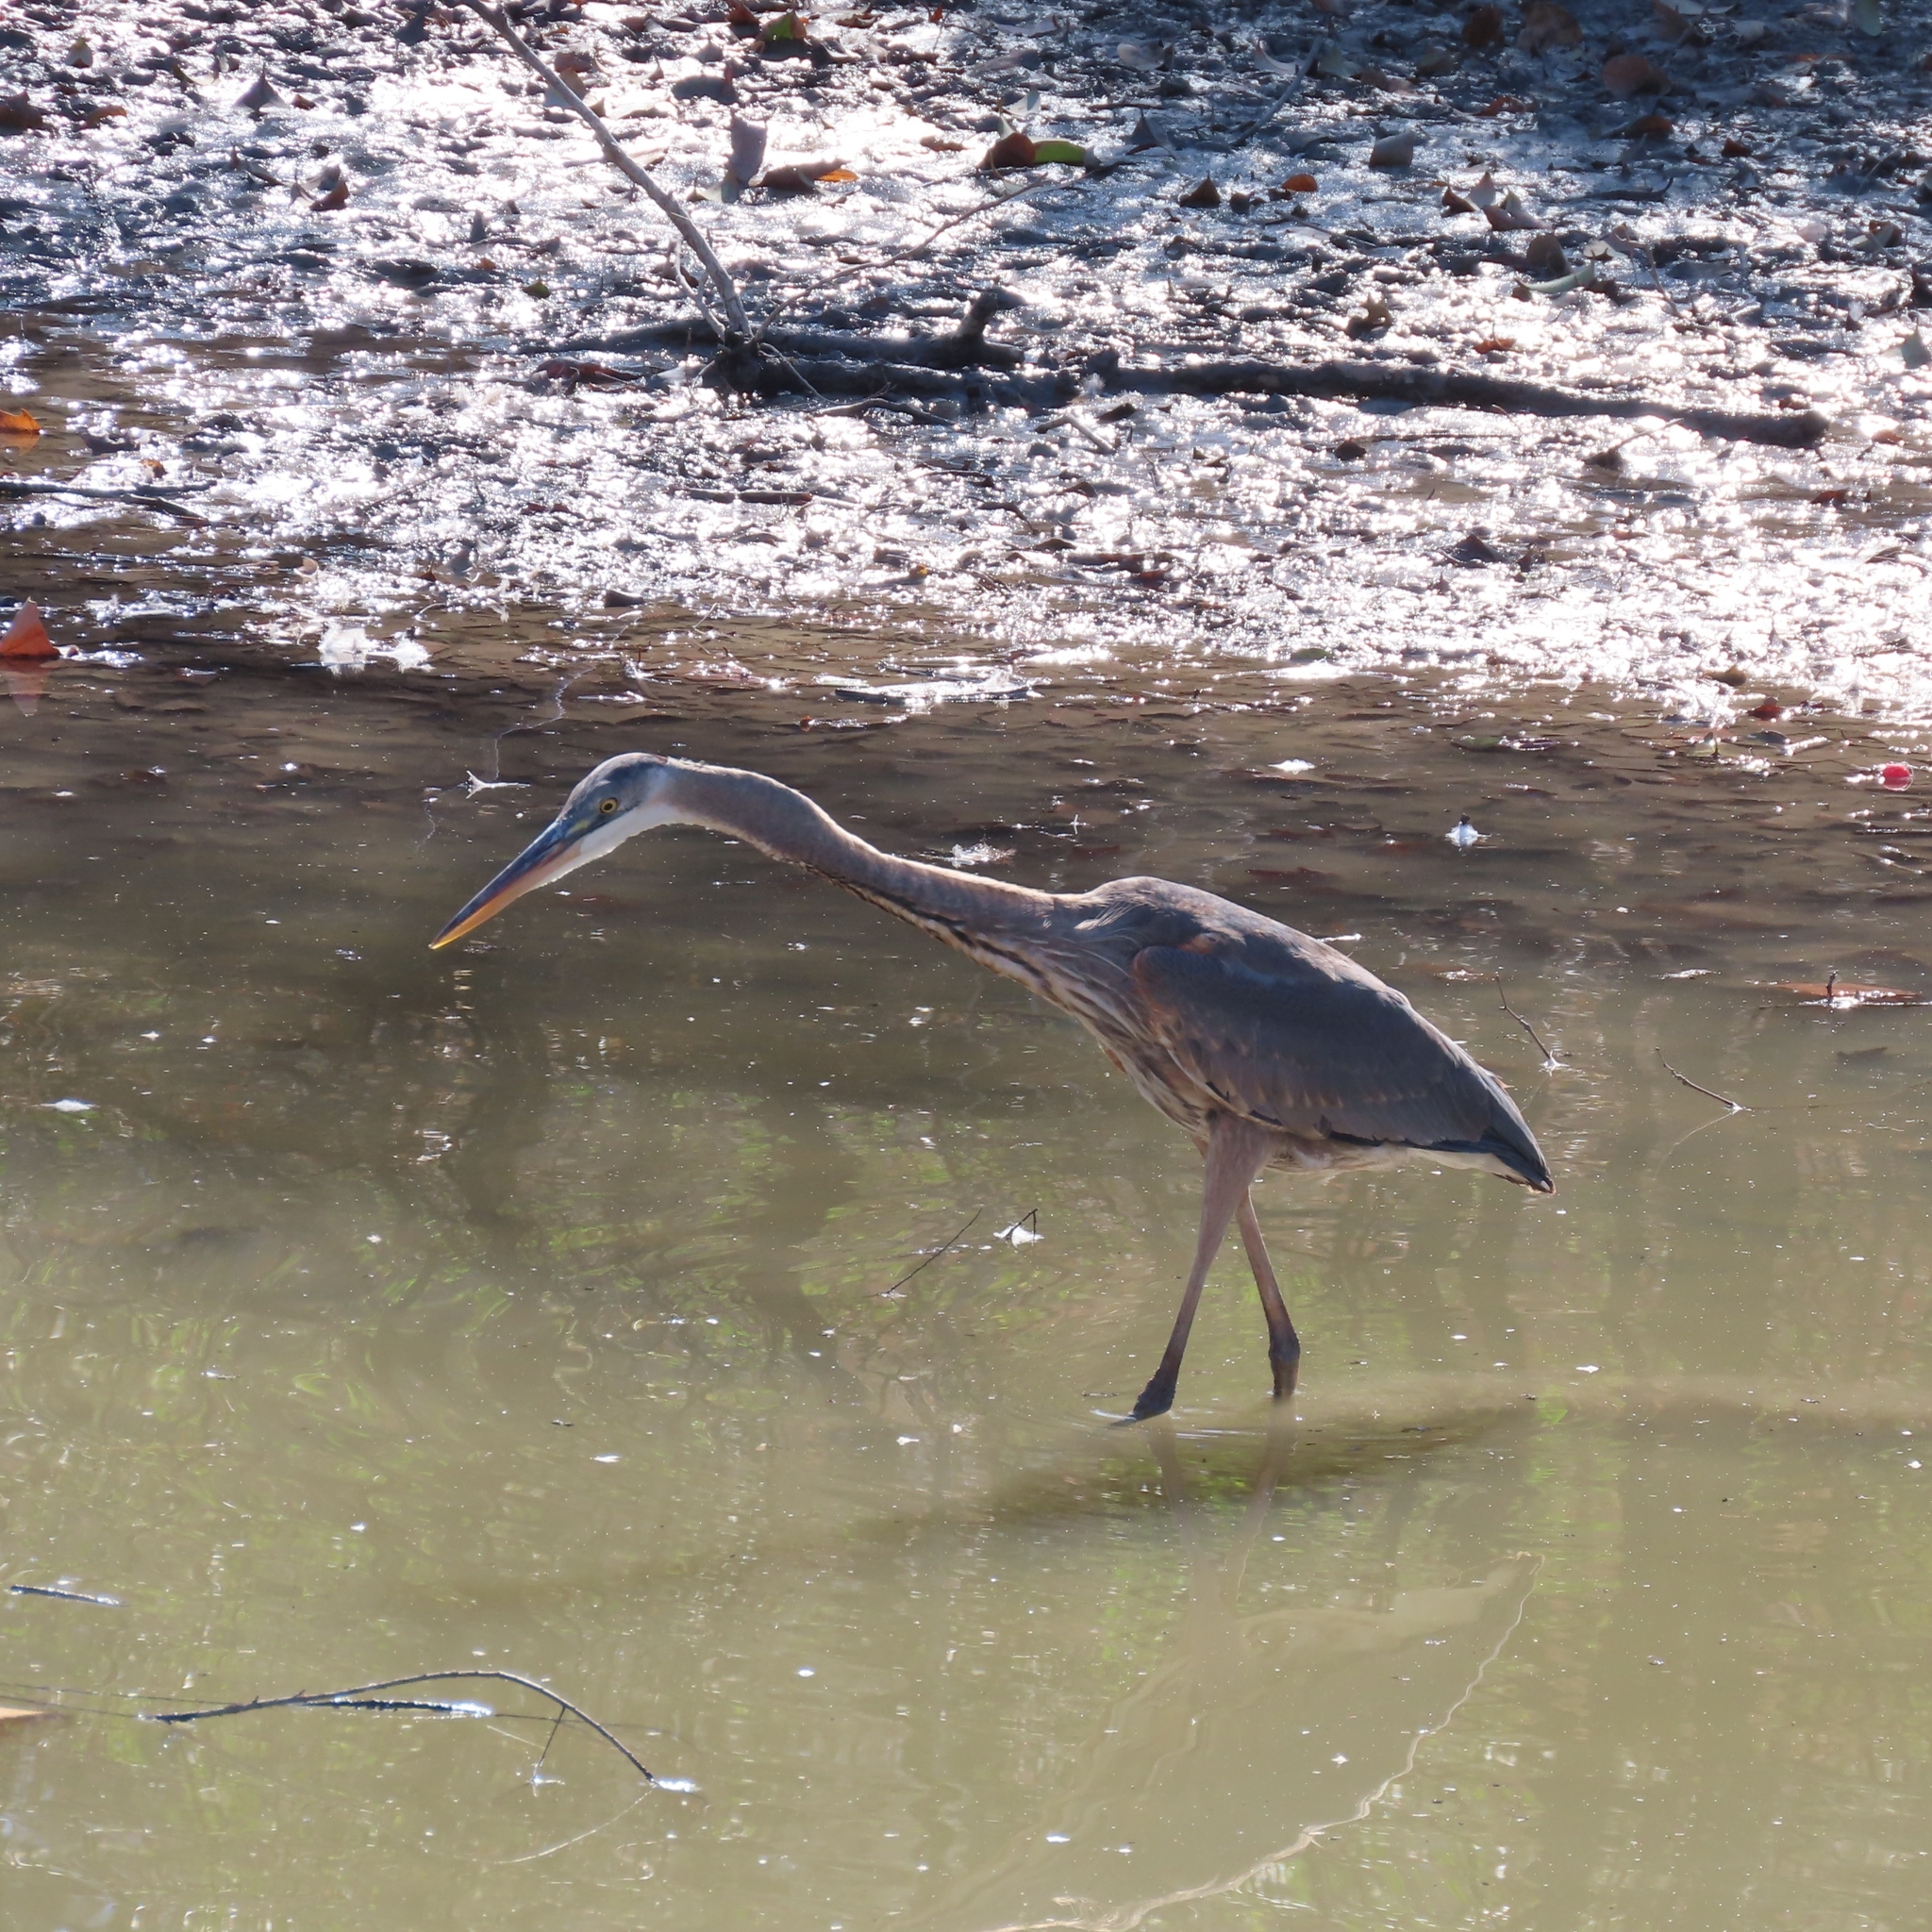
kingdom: Animalia
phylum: Chordata
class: Aves
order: Pelecaniformes
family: Ardeidae
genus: Ardea
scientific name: Ardea herodias
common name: Great blue heron
